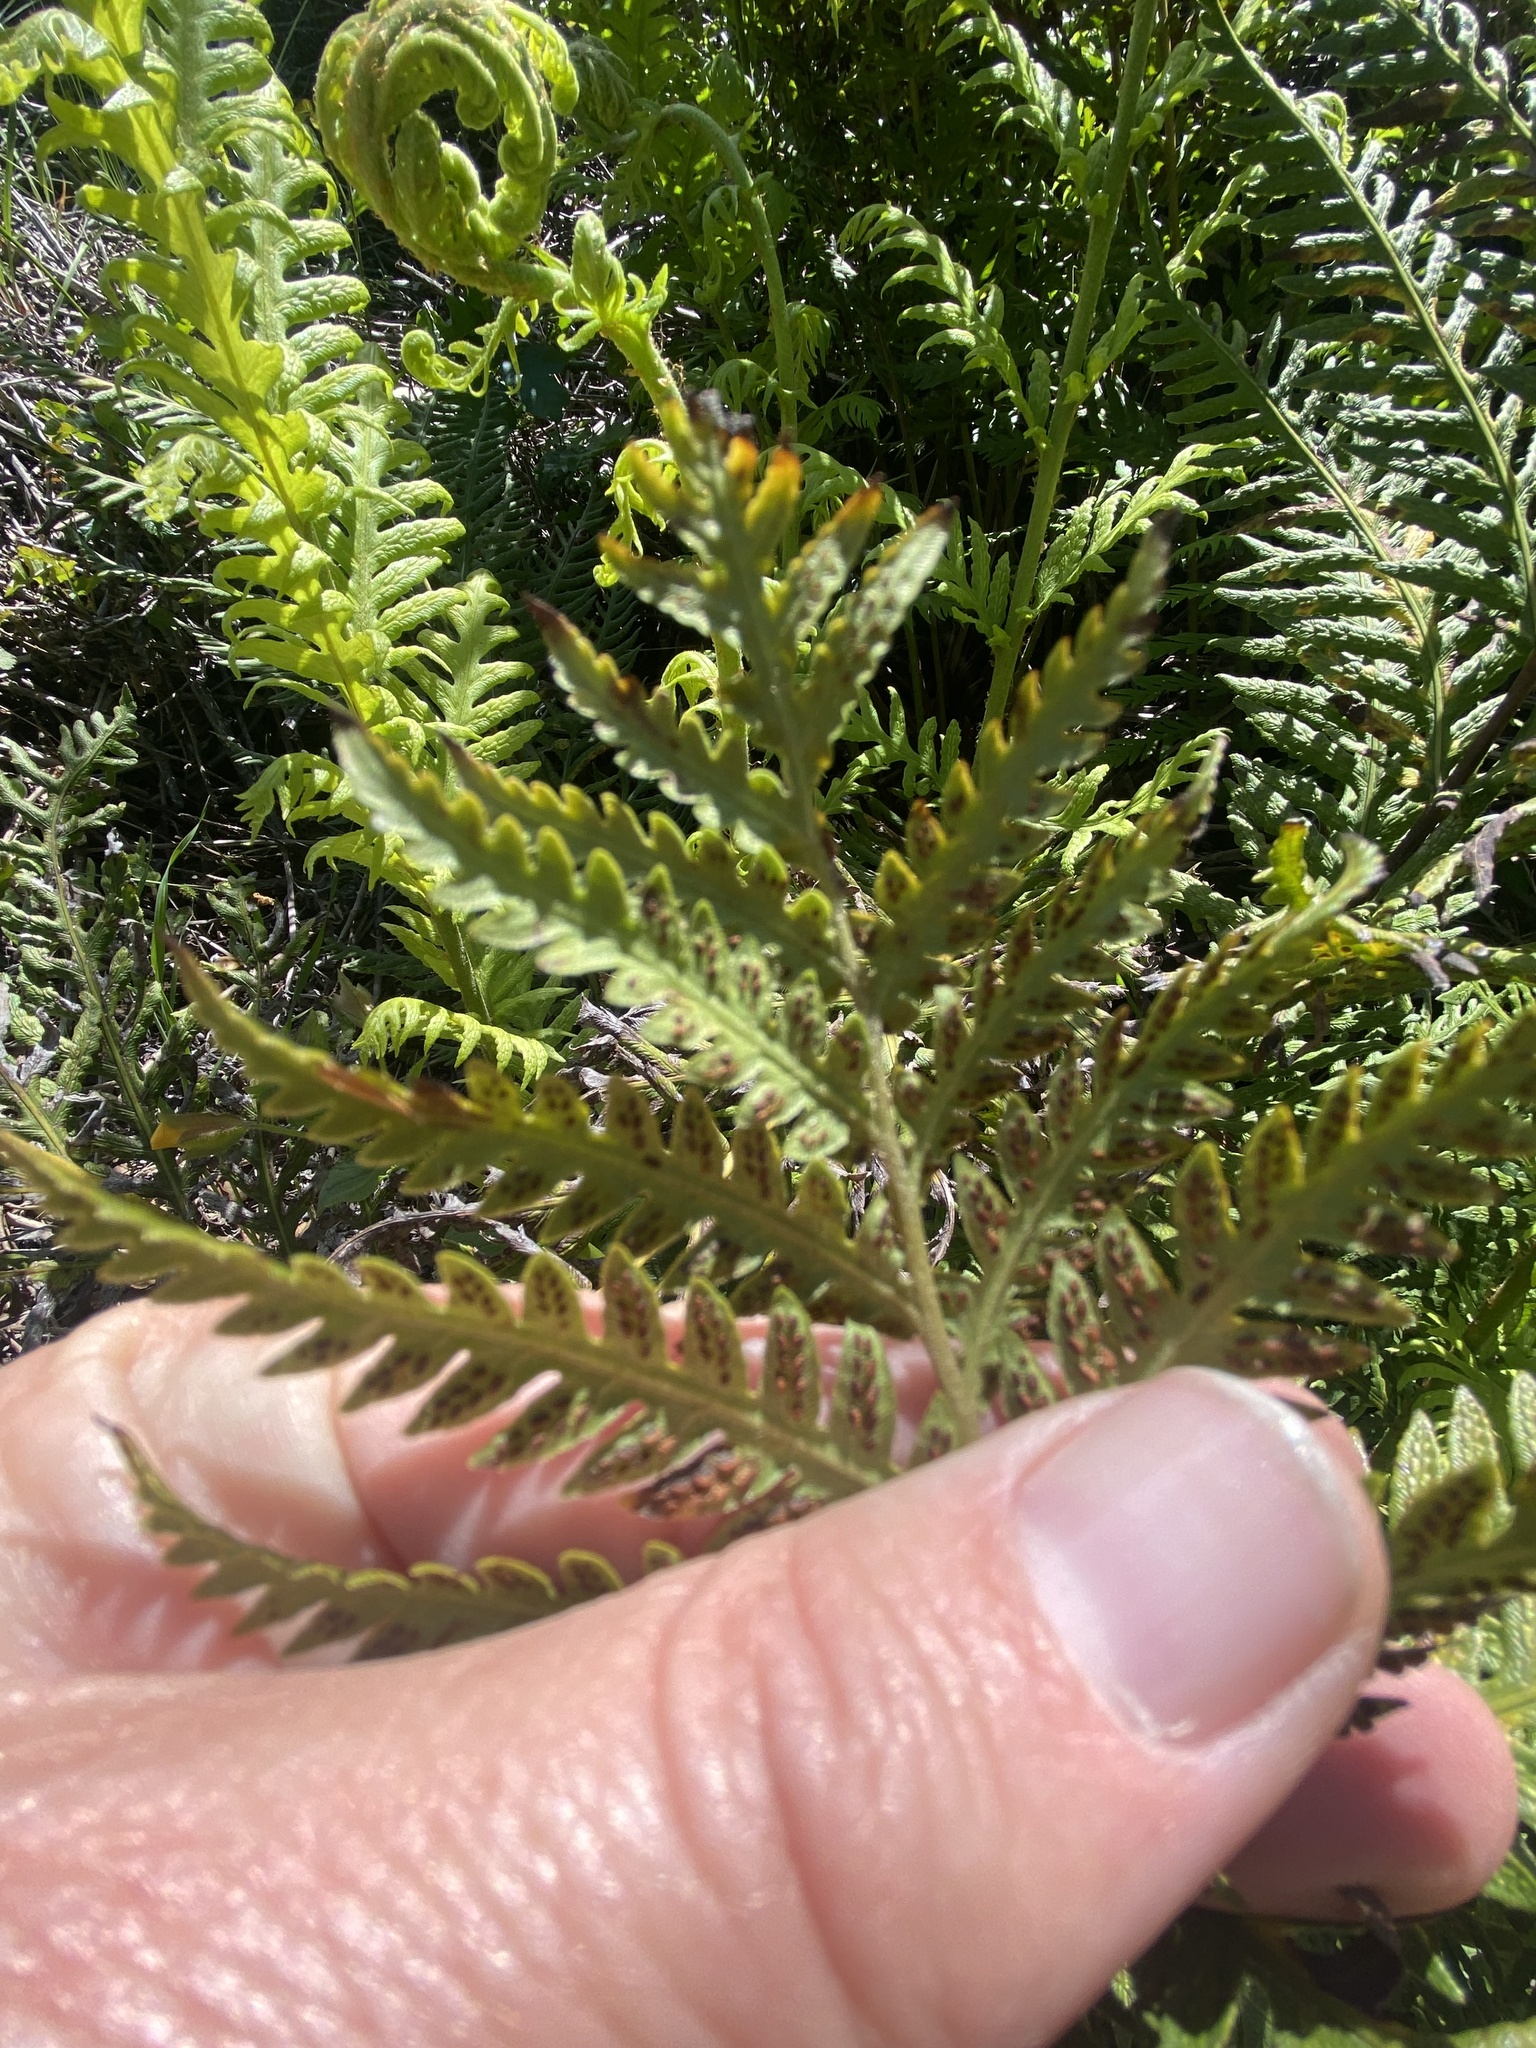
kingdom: Plantae
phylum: Tracheophyta
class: Polypodiopsida
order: Polypodiales
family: Blechnaceae
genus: Woodwardia
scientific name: Woodwardia fimbriata
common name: Giant chain fern
